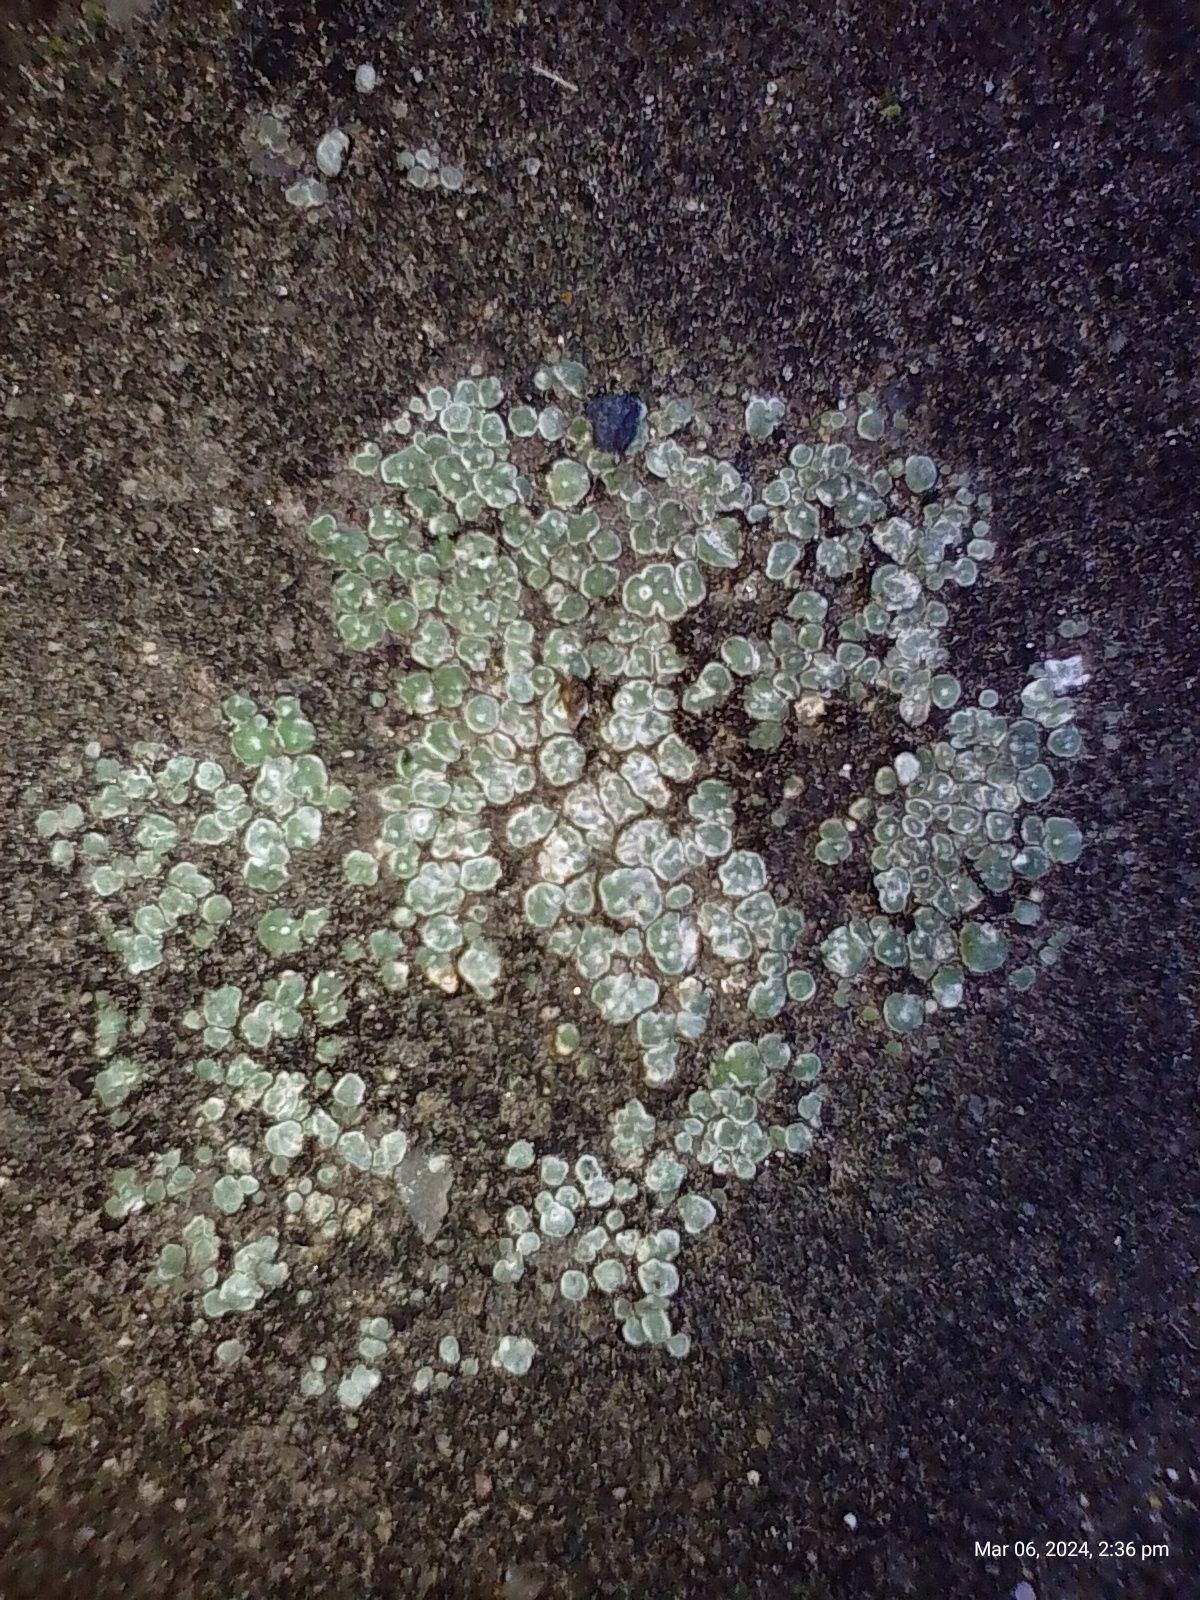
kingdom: Fungi
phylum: Ascomycota
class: Lecanoromycetes
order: Pertusariales
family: Megasporaceae
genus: Circinaria
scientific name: Circinaria contorta
